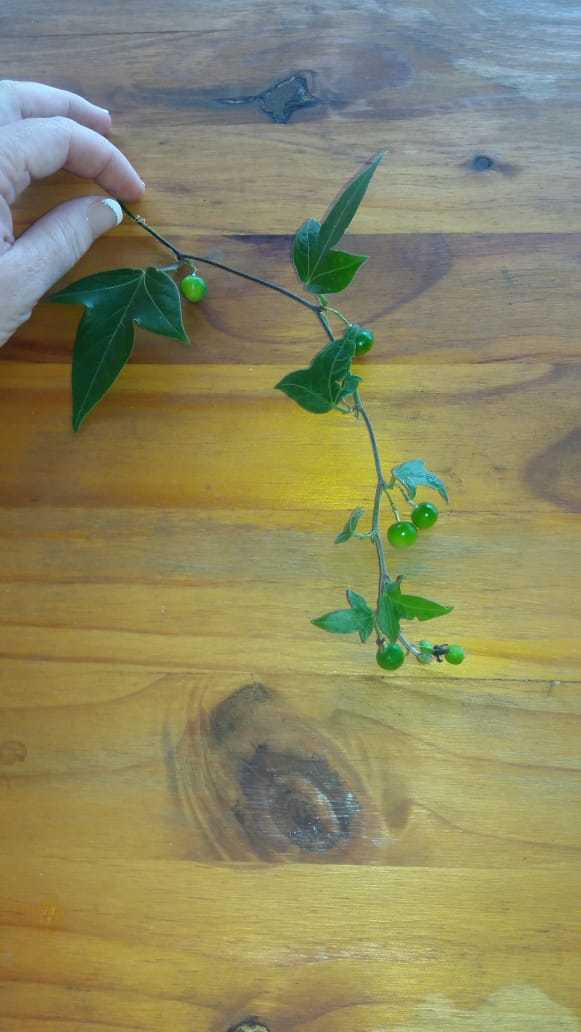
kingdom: Plantae
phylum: Tracheophyta
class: Magnoliopsida
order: Malpighiales
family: Passifloraceae
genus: Passiflora
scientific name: Passiflora suberosa
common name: Wild passionfruit
